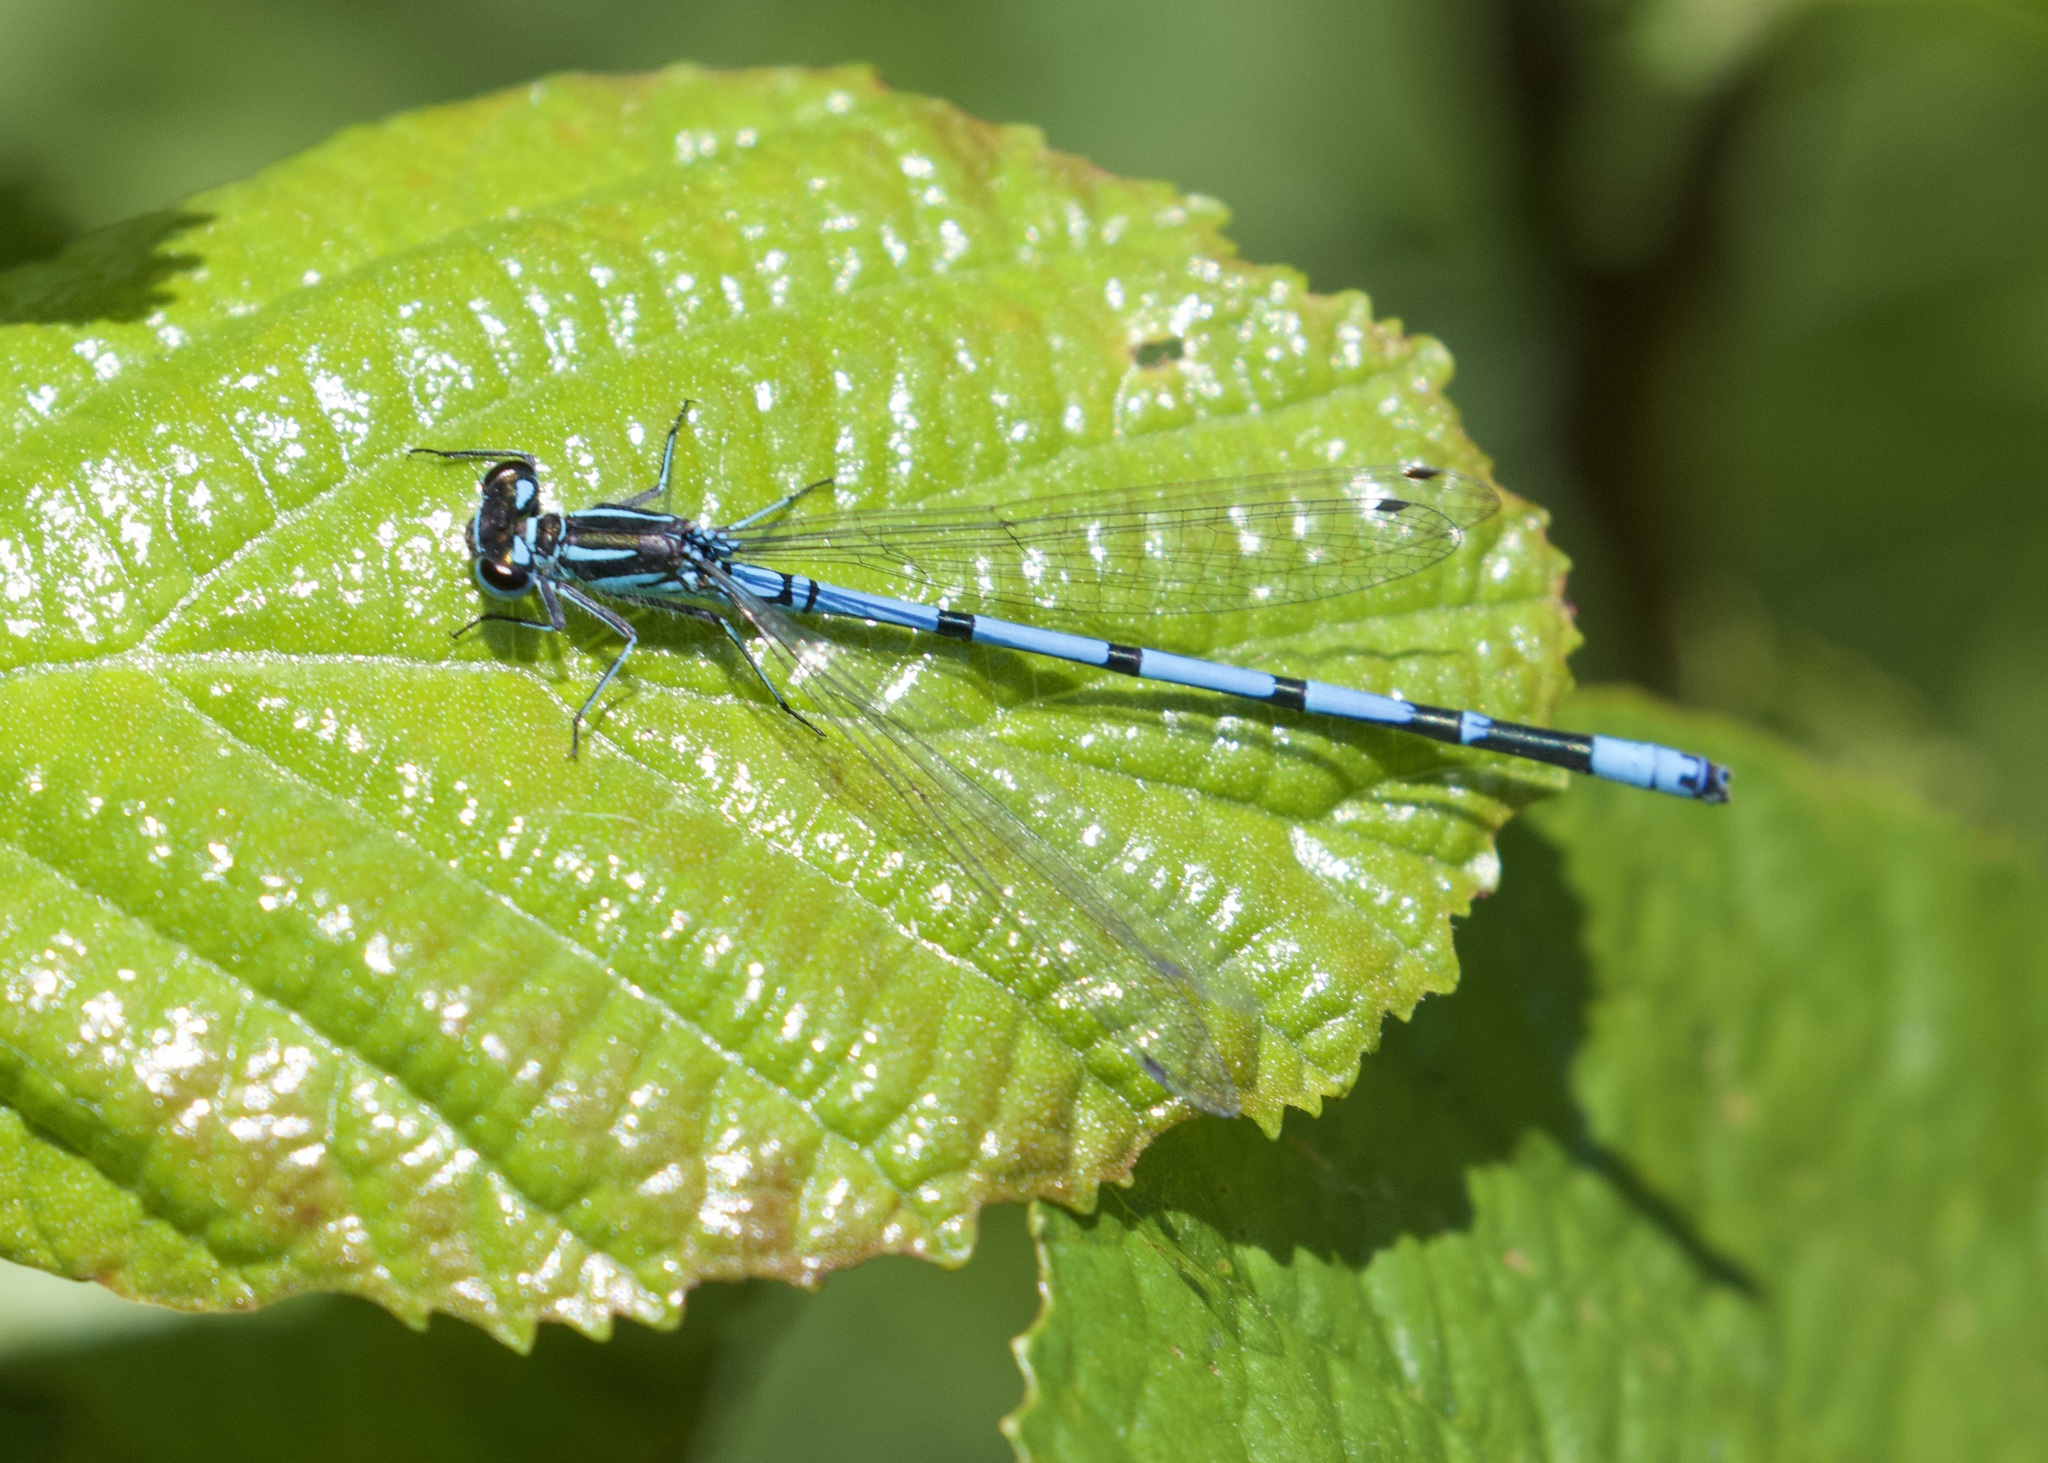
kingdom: Animalia
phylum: Arthropoda
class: Insecta
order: Odonata
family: Coenagrionidae
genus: Coenagrion
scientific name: Coenagrion puella
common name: Azure damselfly
